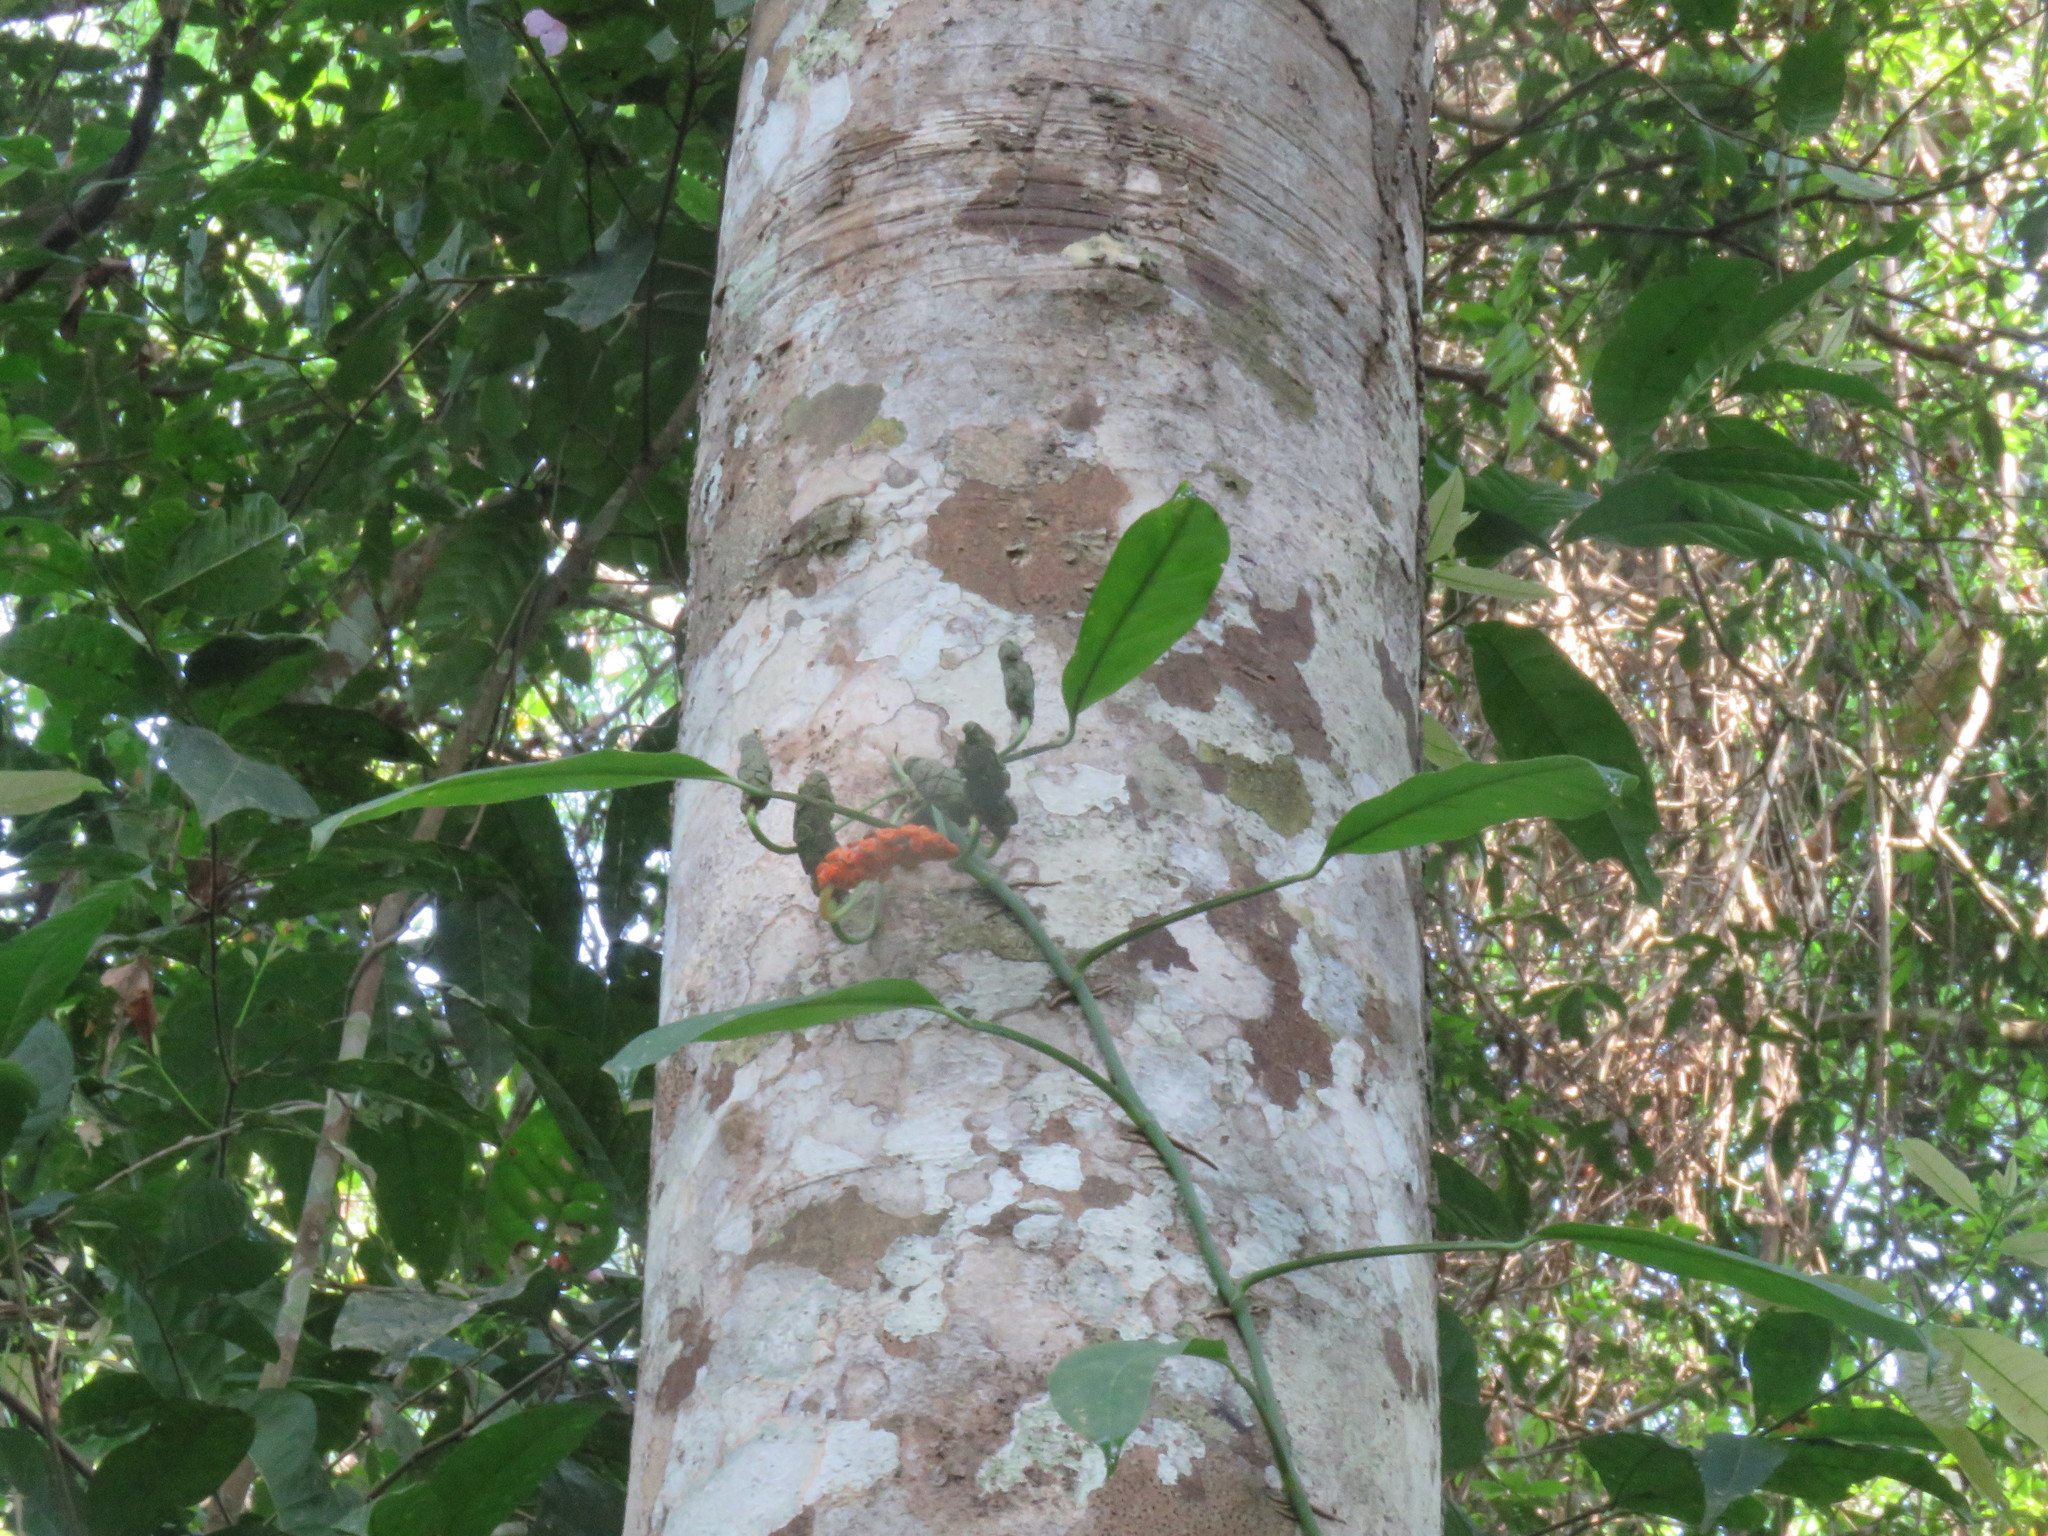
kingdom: Plantae
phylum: Tracheophyta
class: Liliopsida
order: Alismatales
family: Araceae
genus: Monstera
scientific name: Monstera obliqua
